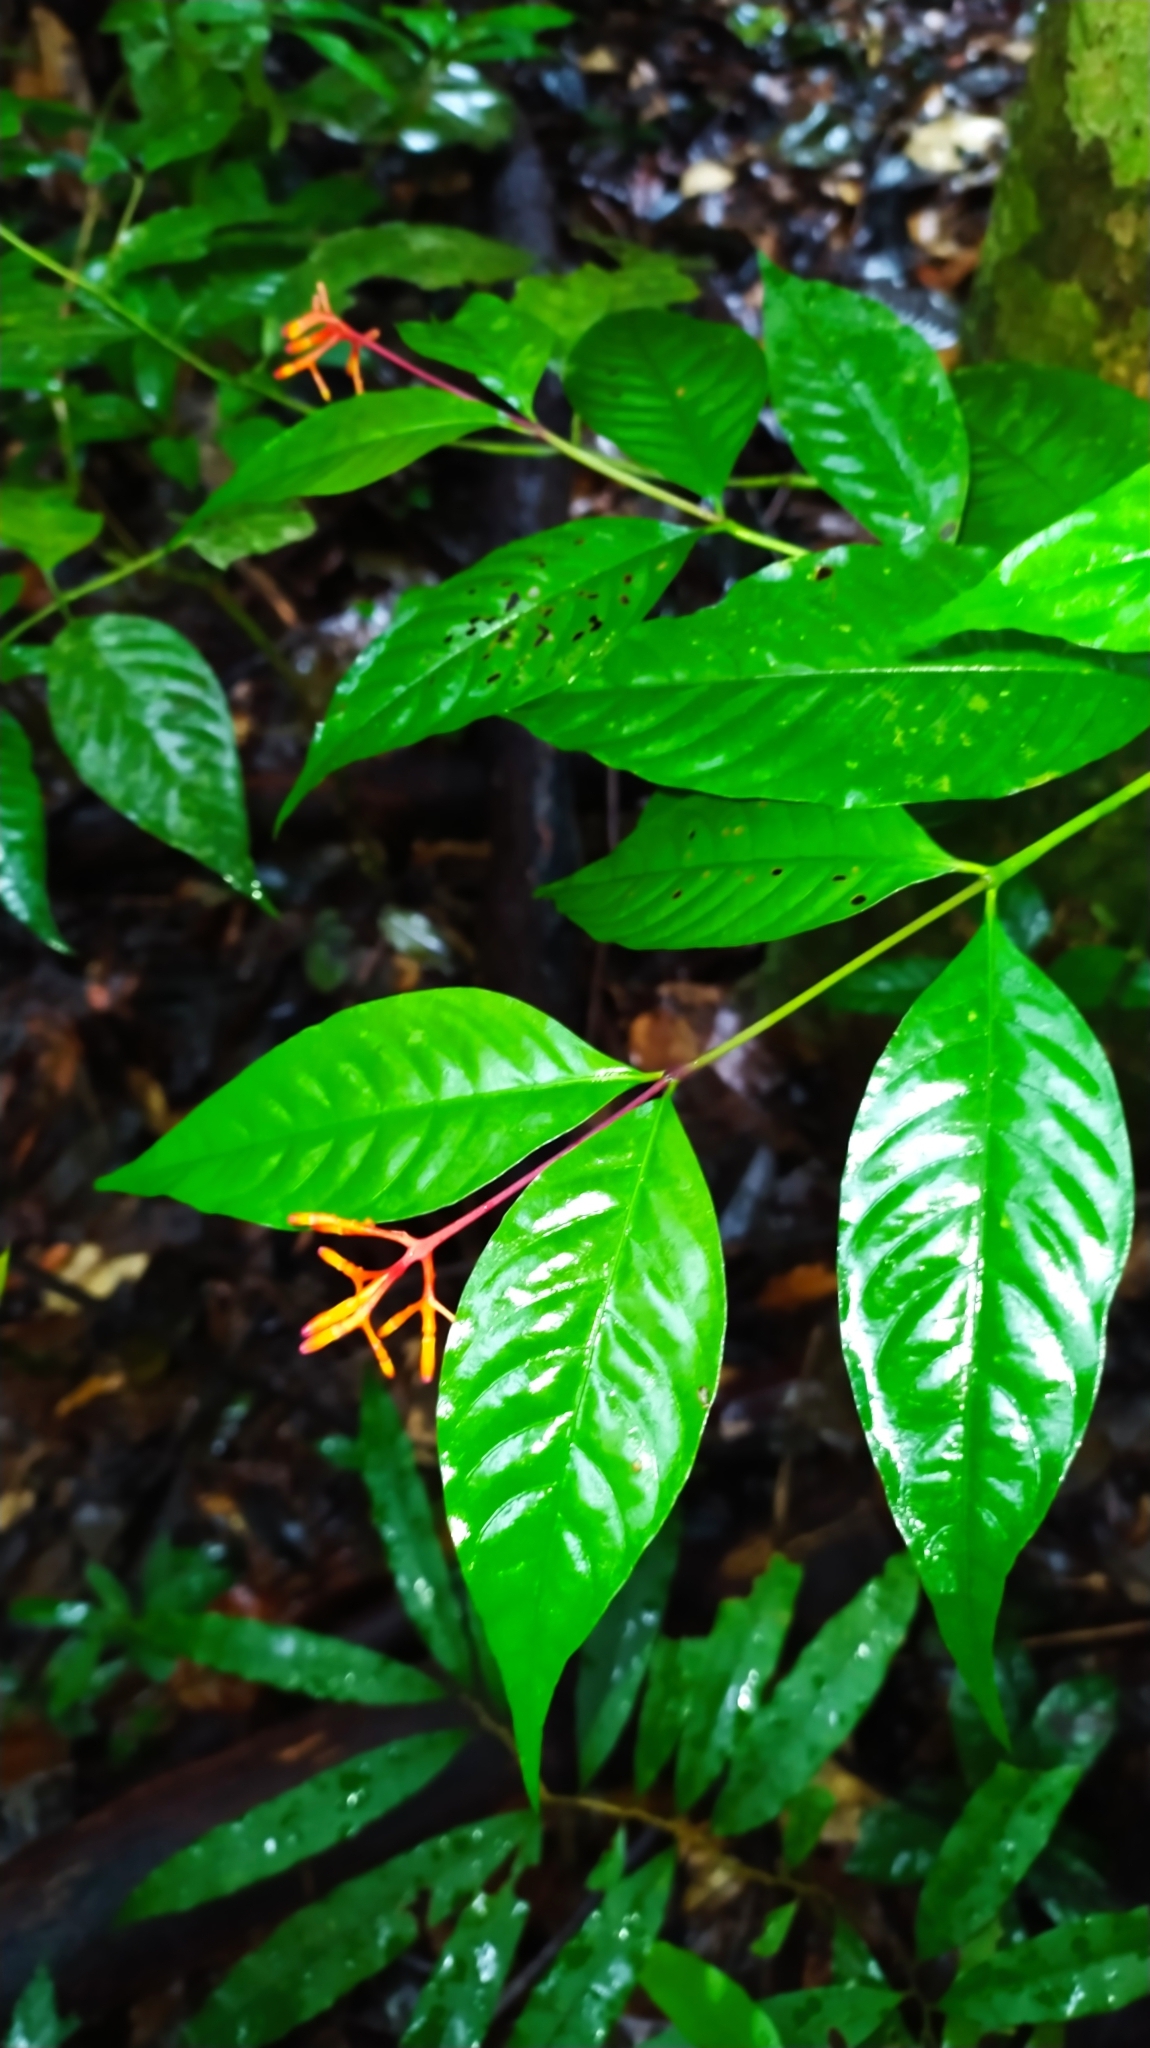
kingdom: Plantae
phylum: Tracheophyta
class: Magnoliopsida
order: Gentianales
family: Rubiaceae
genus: Palicourea
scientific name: Palicourea longiflora
